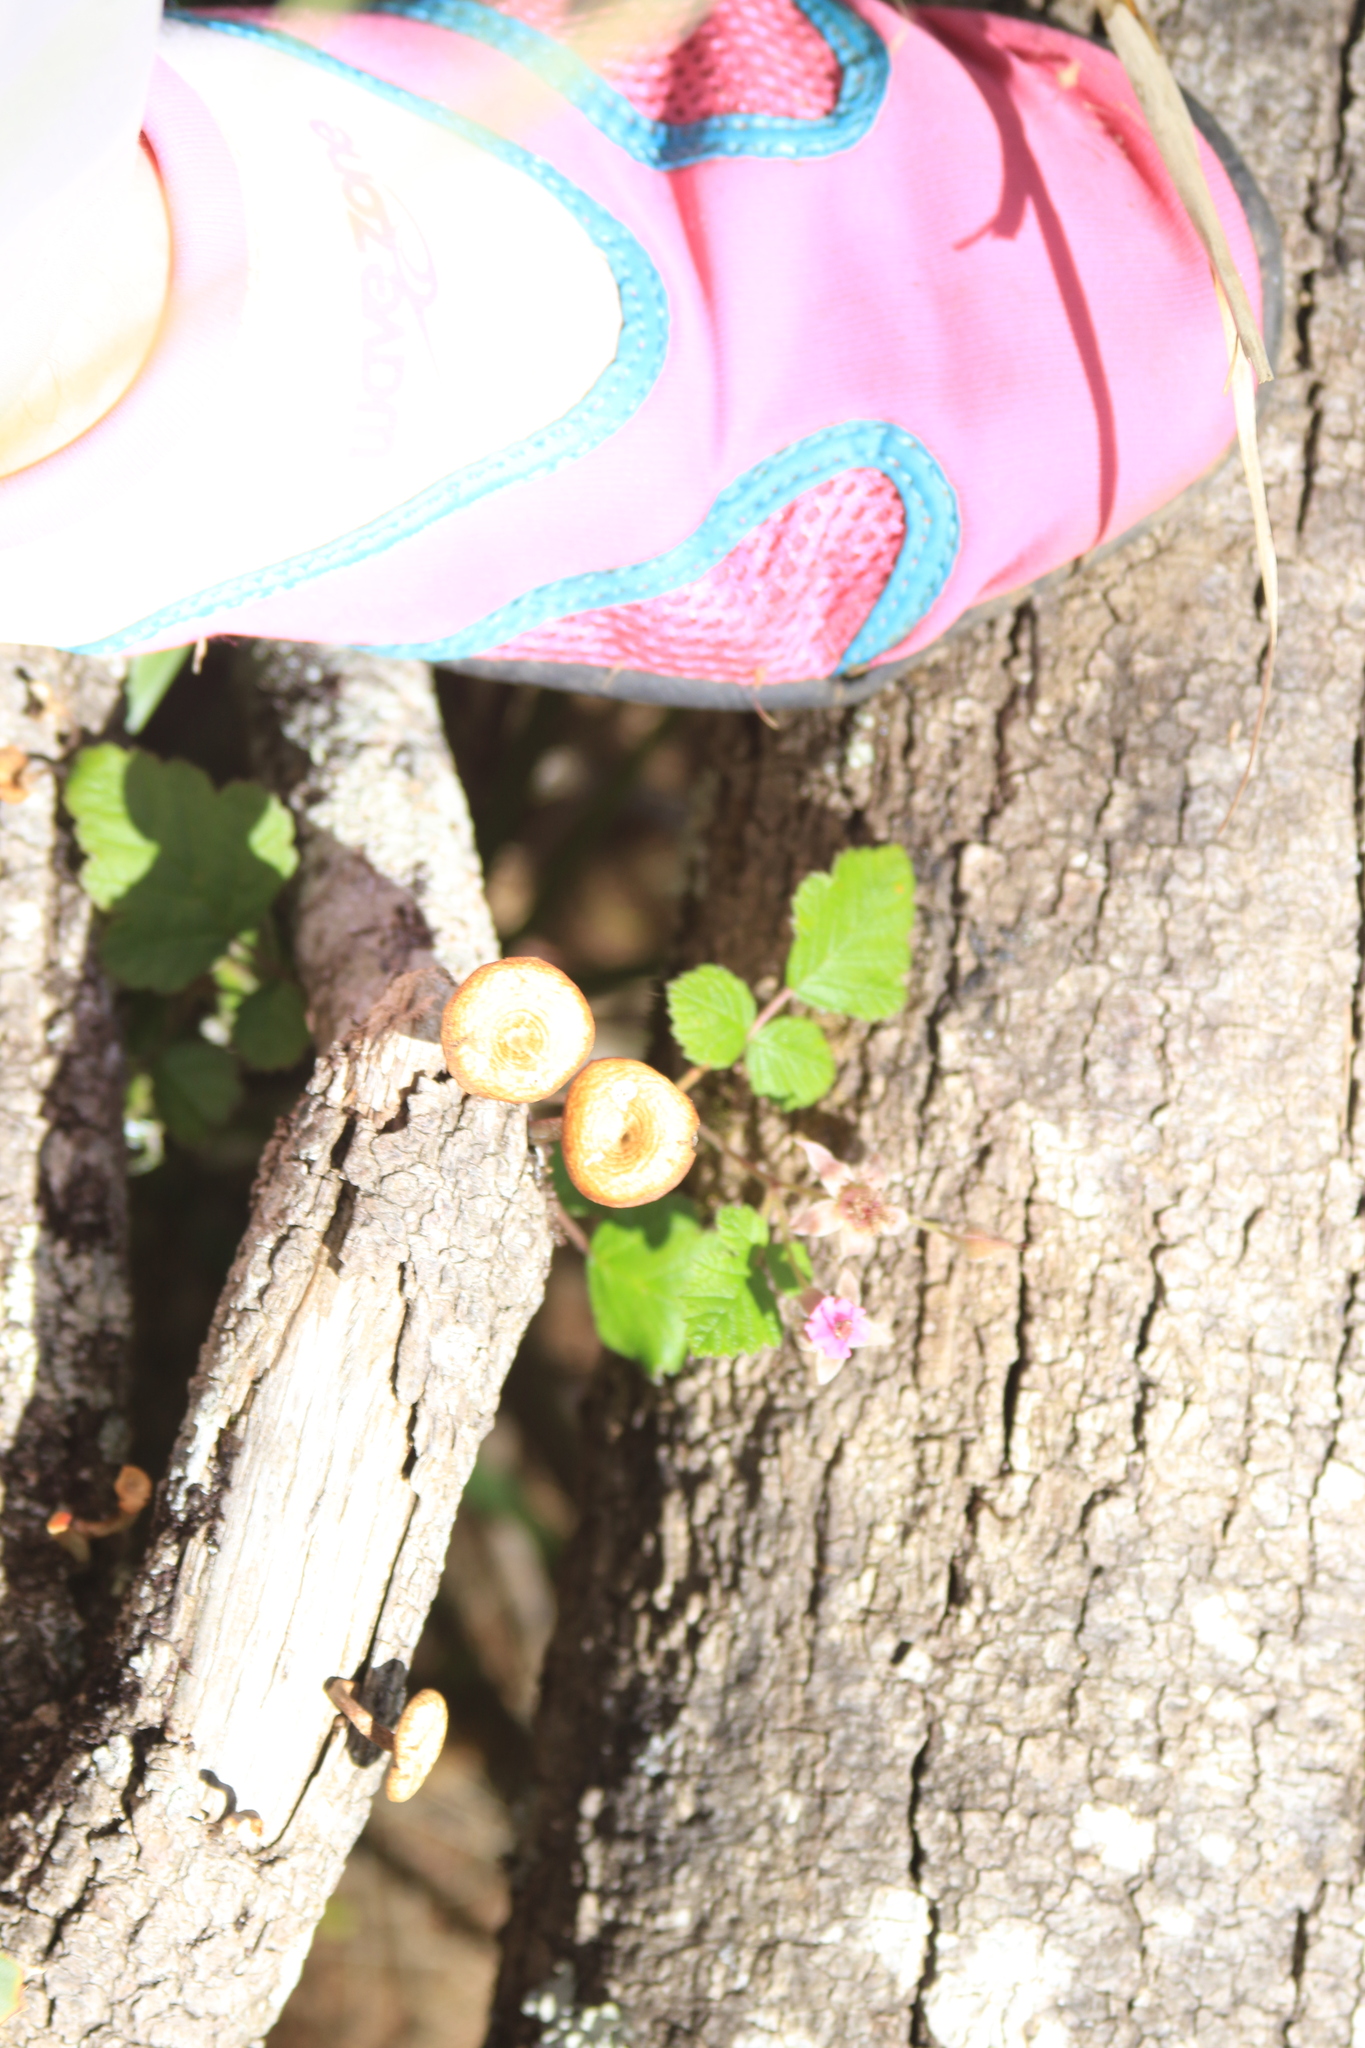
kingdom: Fungi
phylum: Basidiomycota
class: Agaricomycetes
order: Polyporales
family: Polyporaceae
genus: Lentinus
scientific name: Lentinus arcularius
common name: Spring polypore
